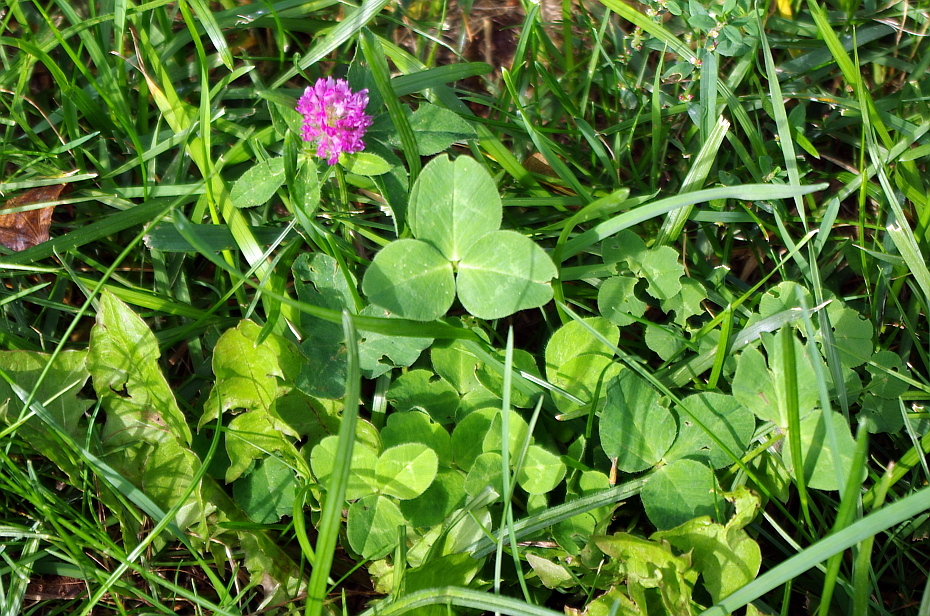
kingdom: Plantae
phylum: Tracheophyta
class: Magnoliopsida
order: Fabales
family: Fabaceae
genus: Trifolium
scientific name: Trifolium pratense
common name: Red clover
